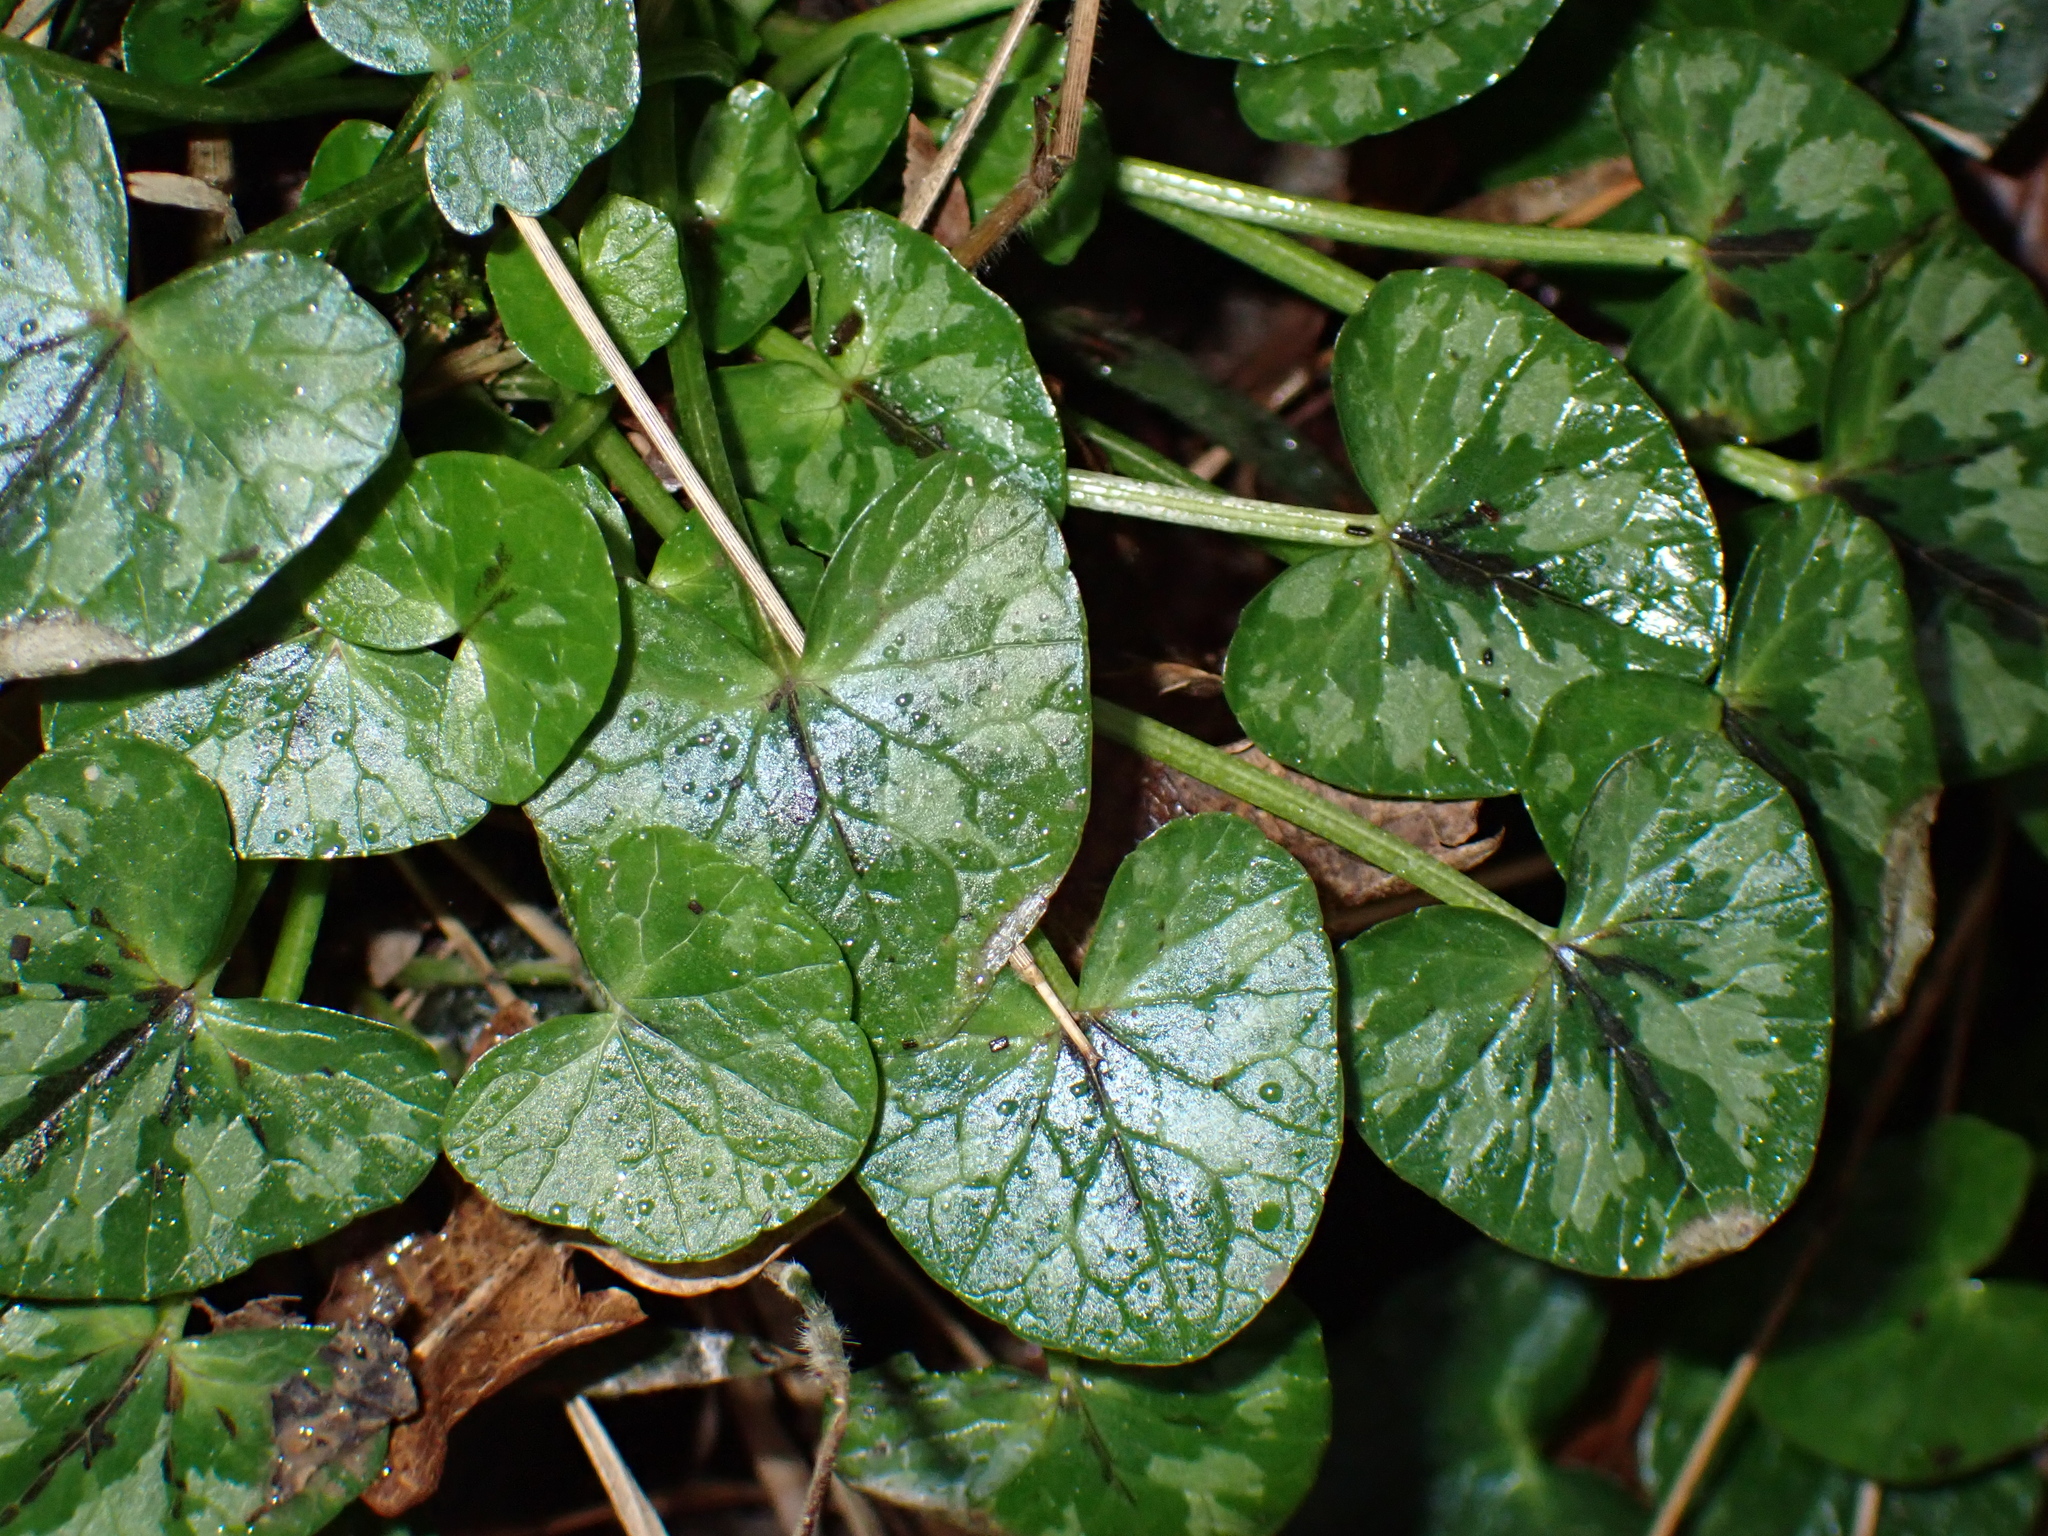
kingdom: Plantae
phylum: Tracheophyta
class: Magnoliopsida
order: Ranunculales
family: Ranunculaceae
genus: Ficaria
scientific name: Ficaria verna
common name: Lesser celandine
